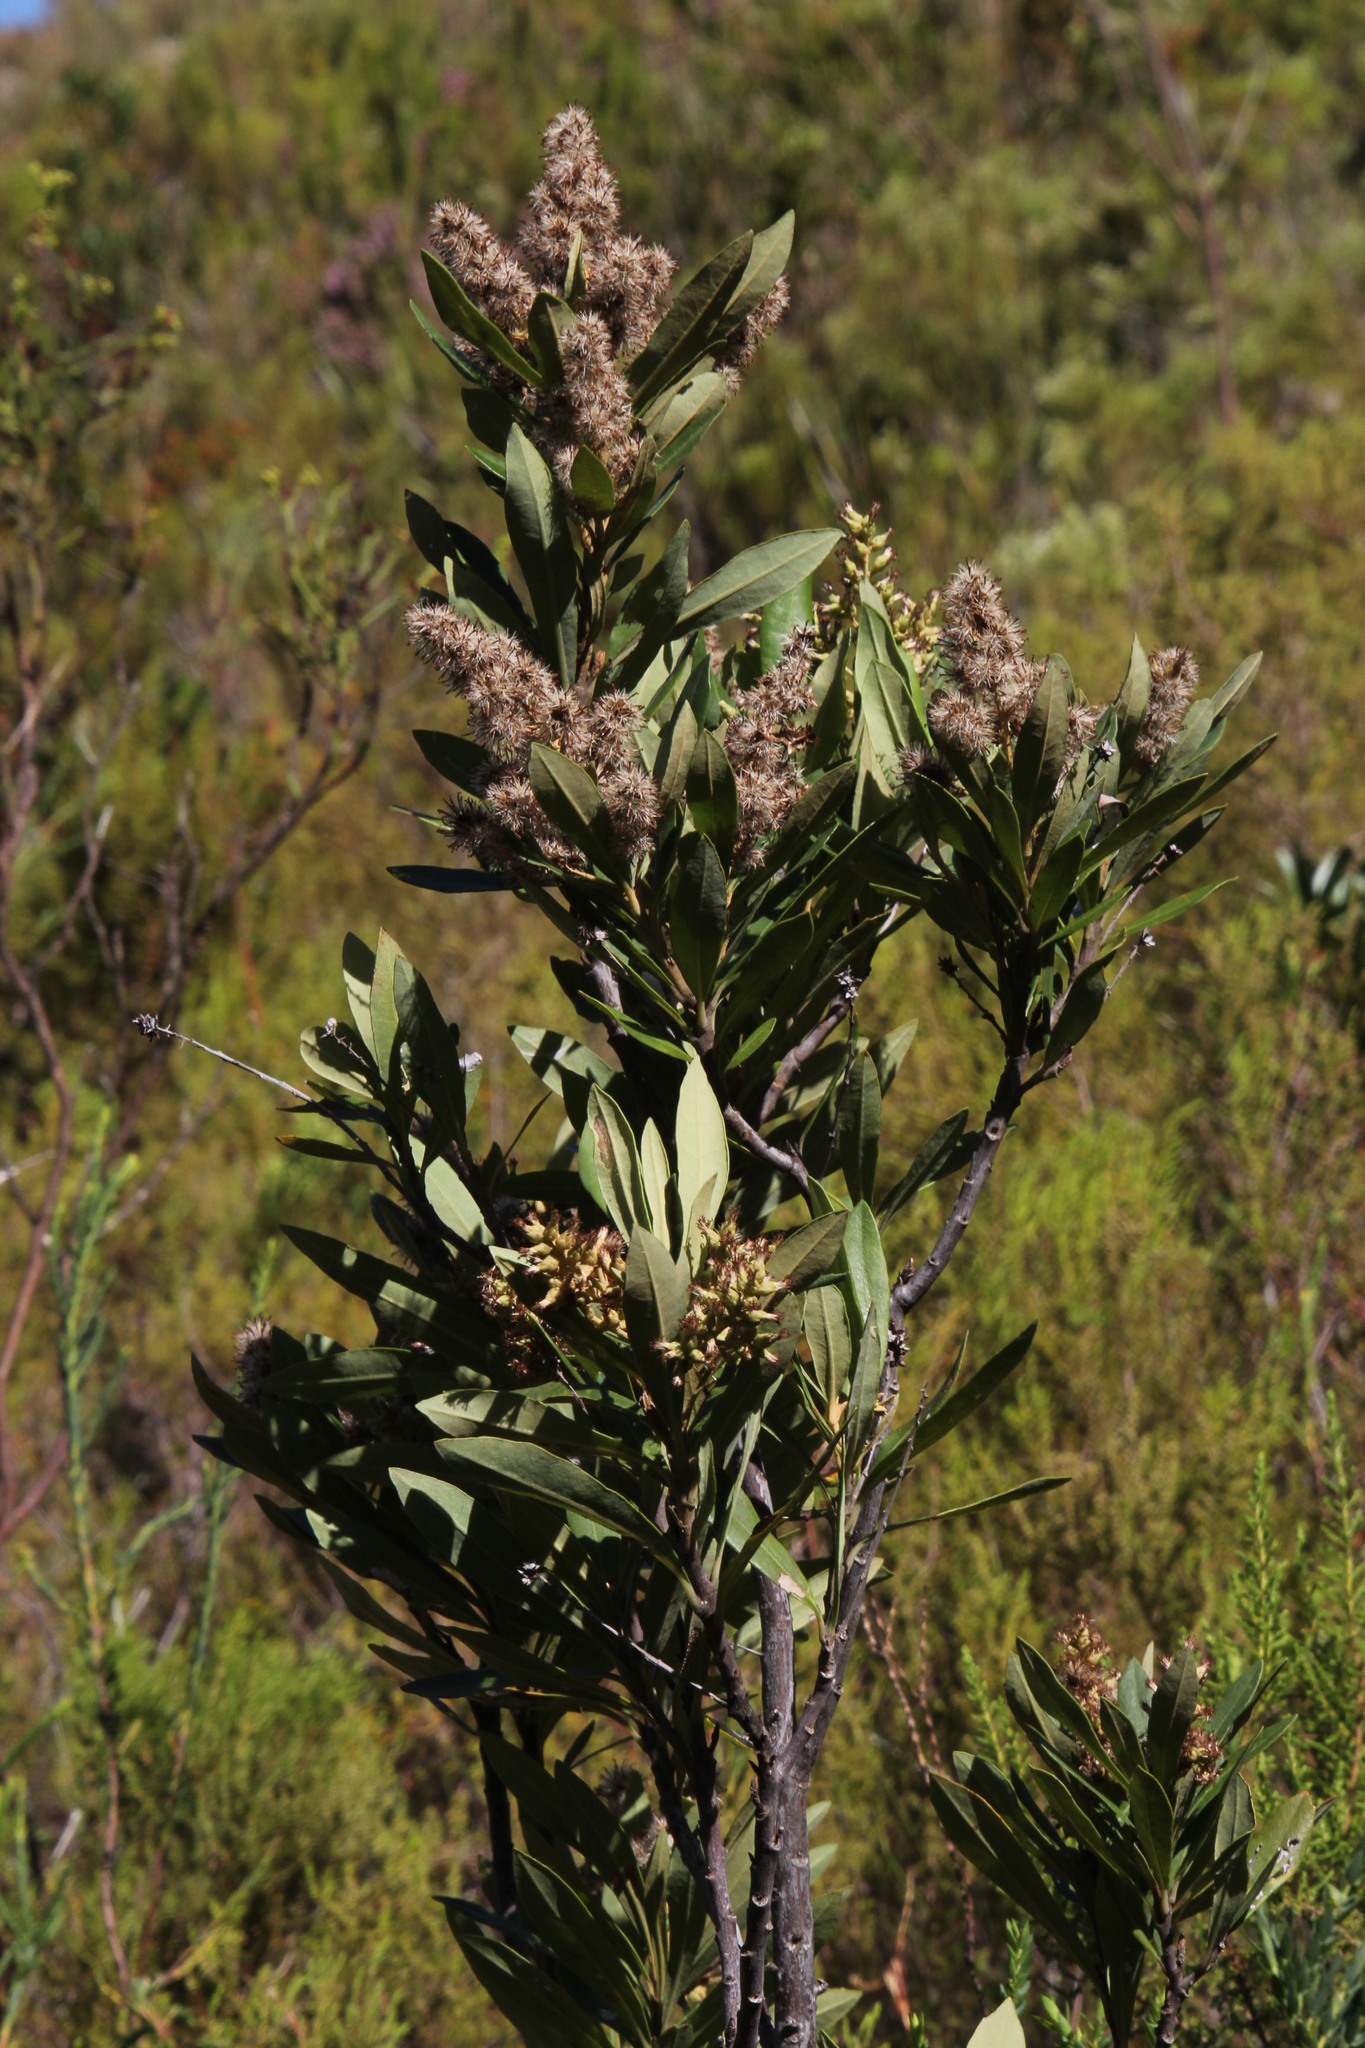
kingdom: Plantae
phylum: Tracheophyta
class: Magnoliopsida
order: Asterales
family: Asteraceae
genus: Brachylaena
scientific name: Brachylaena neriifolia
